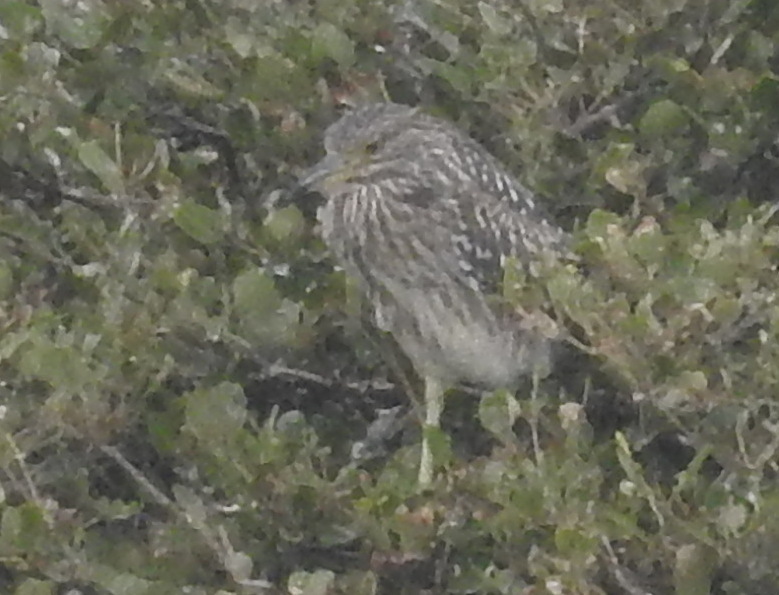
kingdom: Animalia
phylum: Chordata
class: Aves
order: Pelecaniformes
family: Ardeidae
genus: Nycticorax
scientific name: Nycticorax nycticorax
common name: Black-crowned night heron
